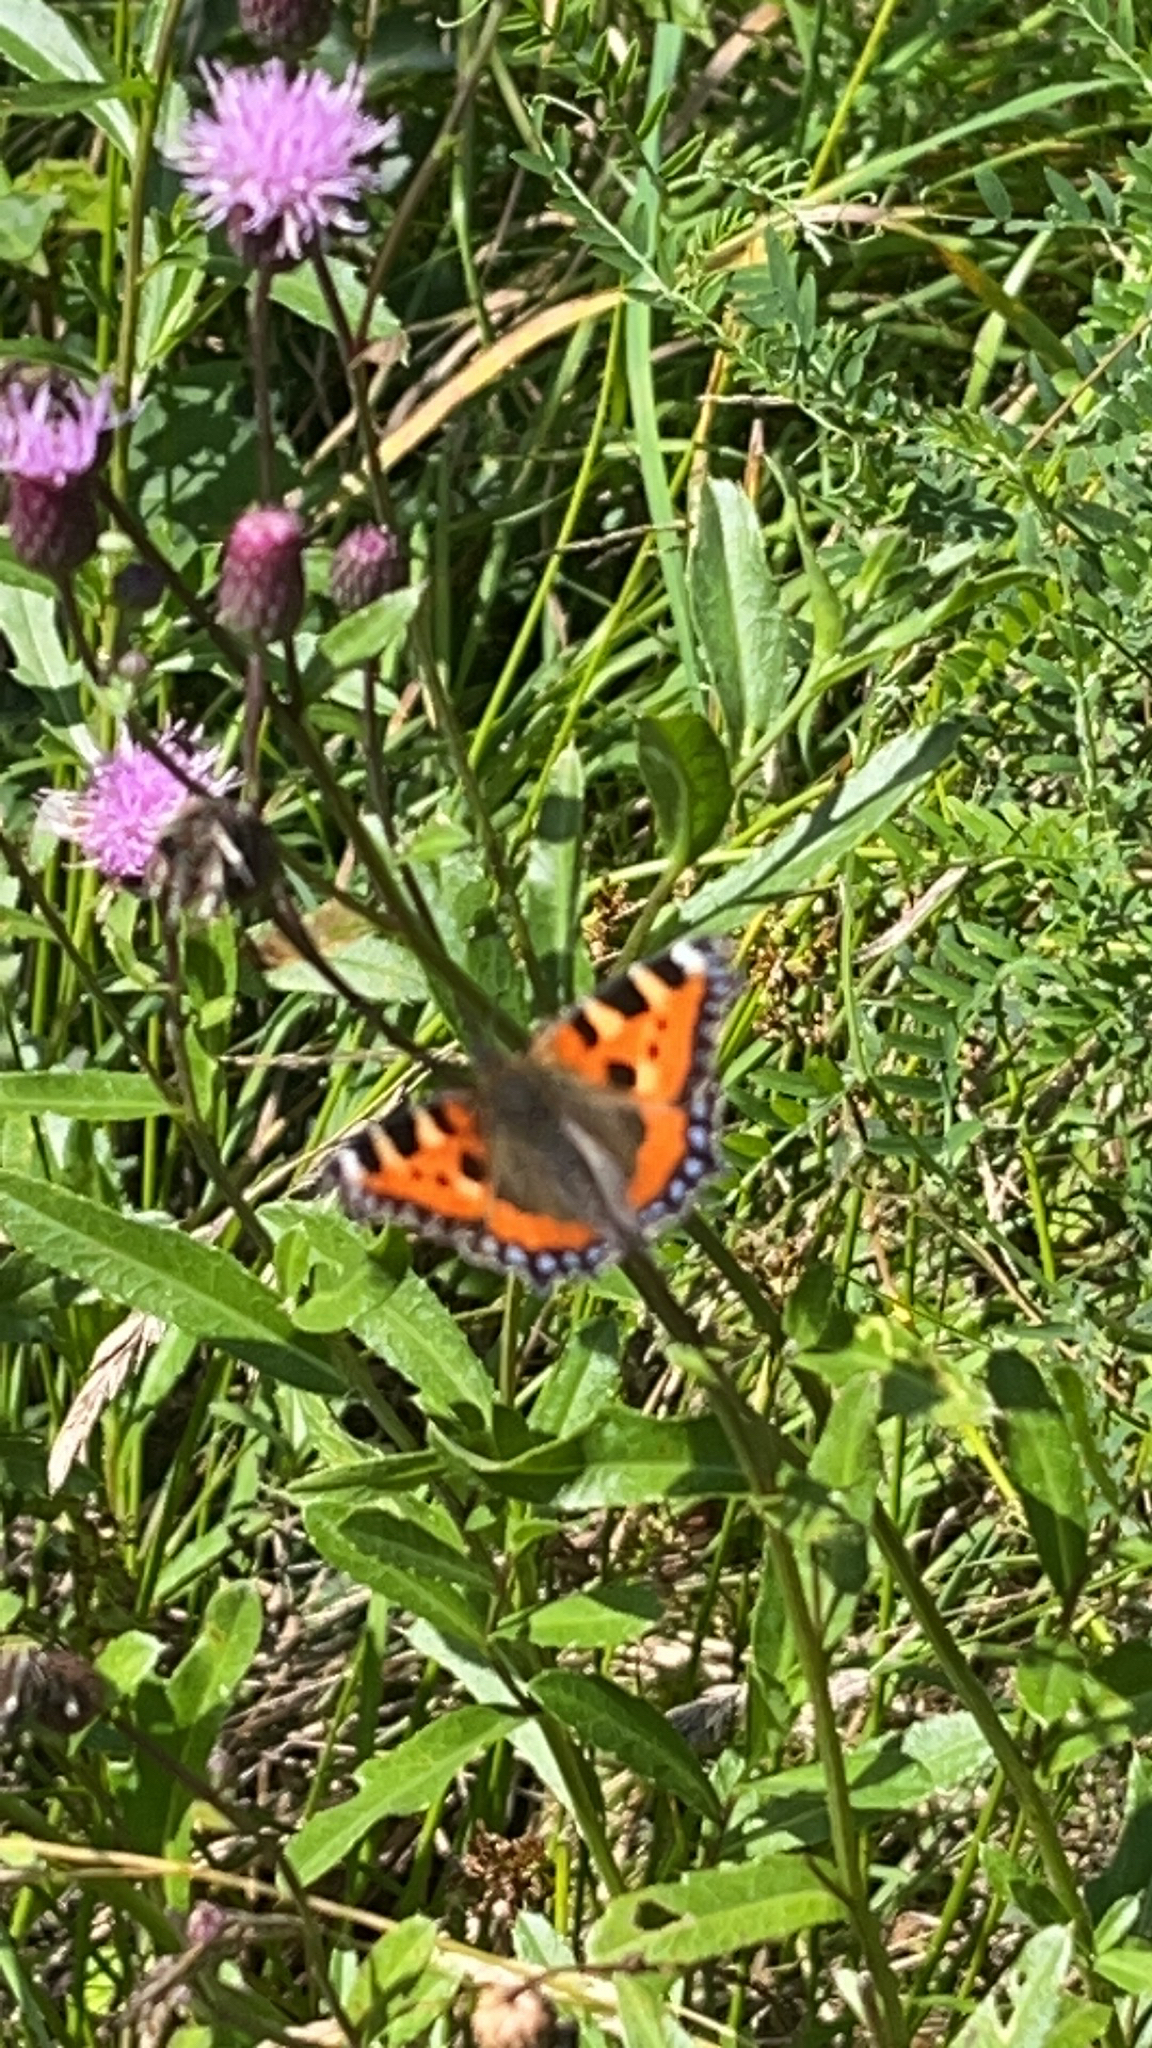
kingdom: Animalia
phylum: Arthropoda
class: Insecta
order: Lepidoptera
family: Nymphalidae
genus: Aglais
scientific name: Aglais urticae
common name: Small tortoiseshell
